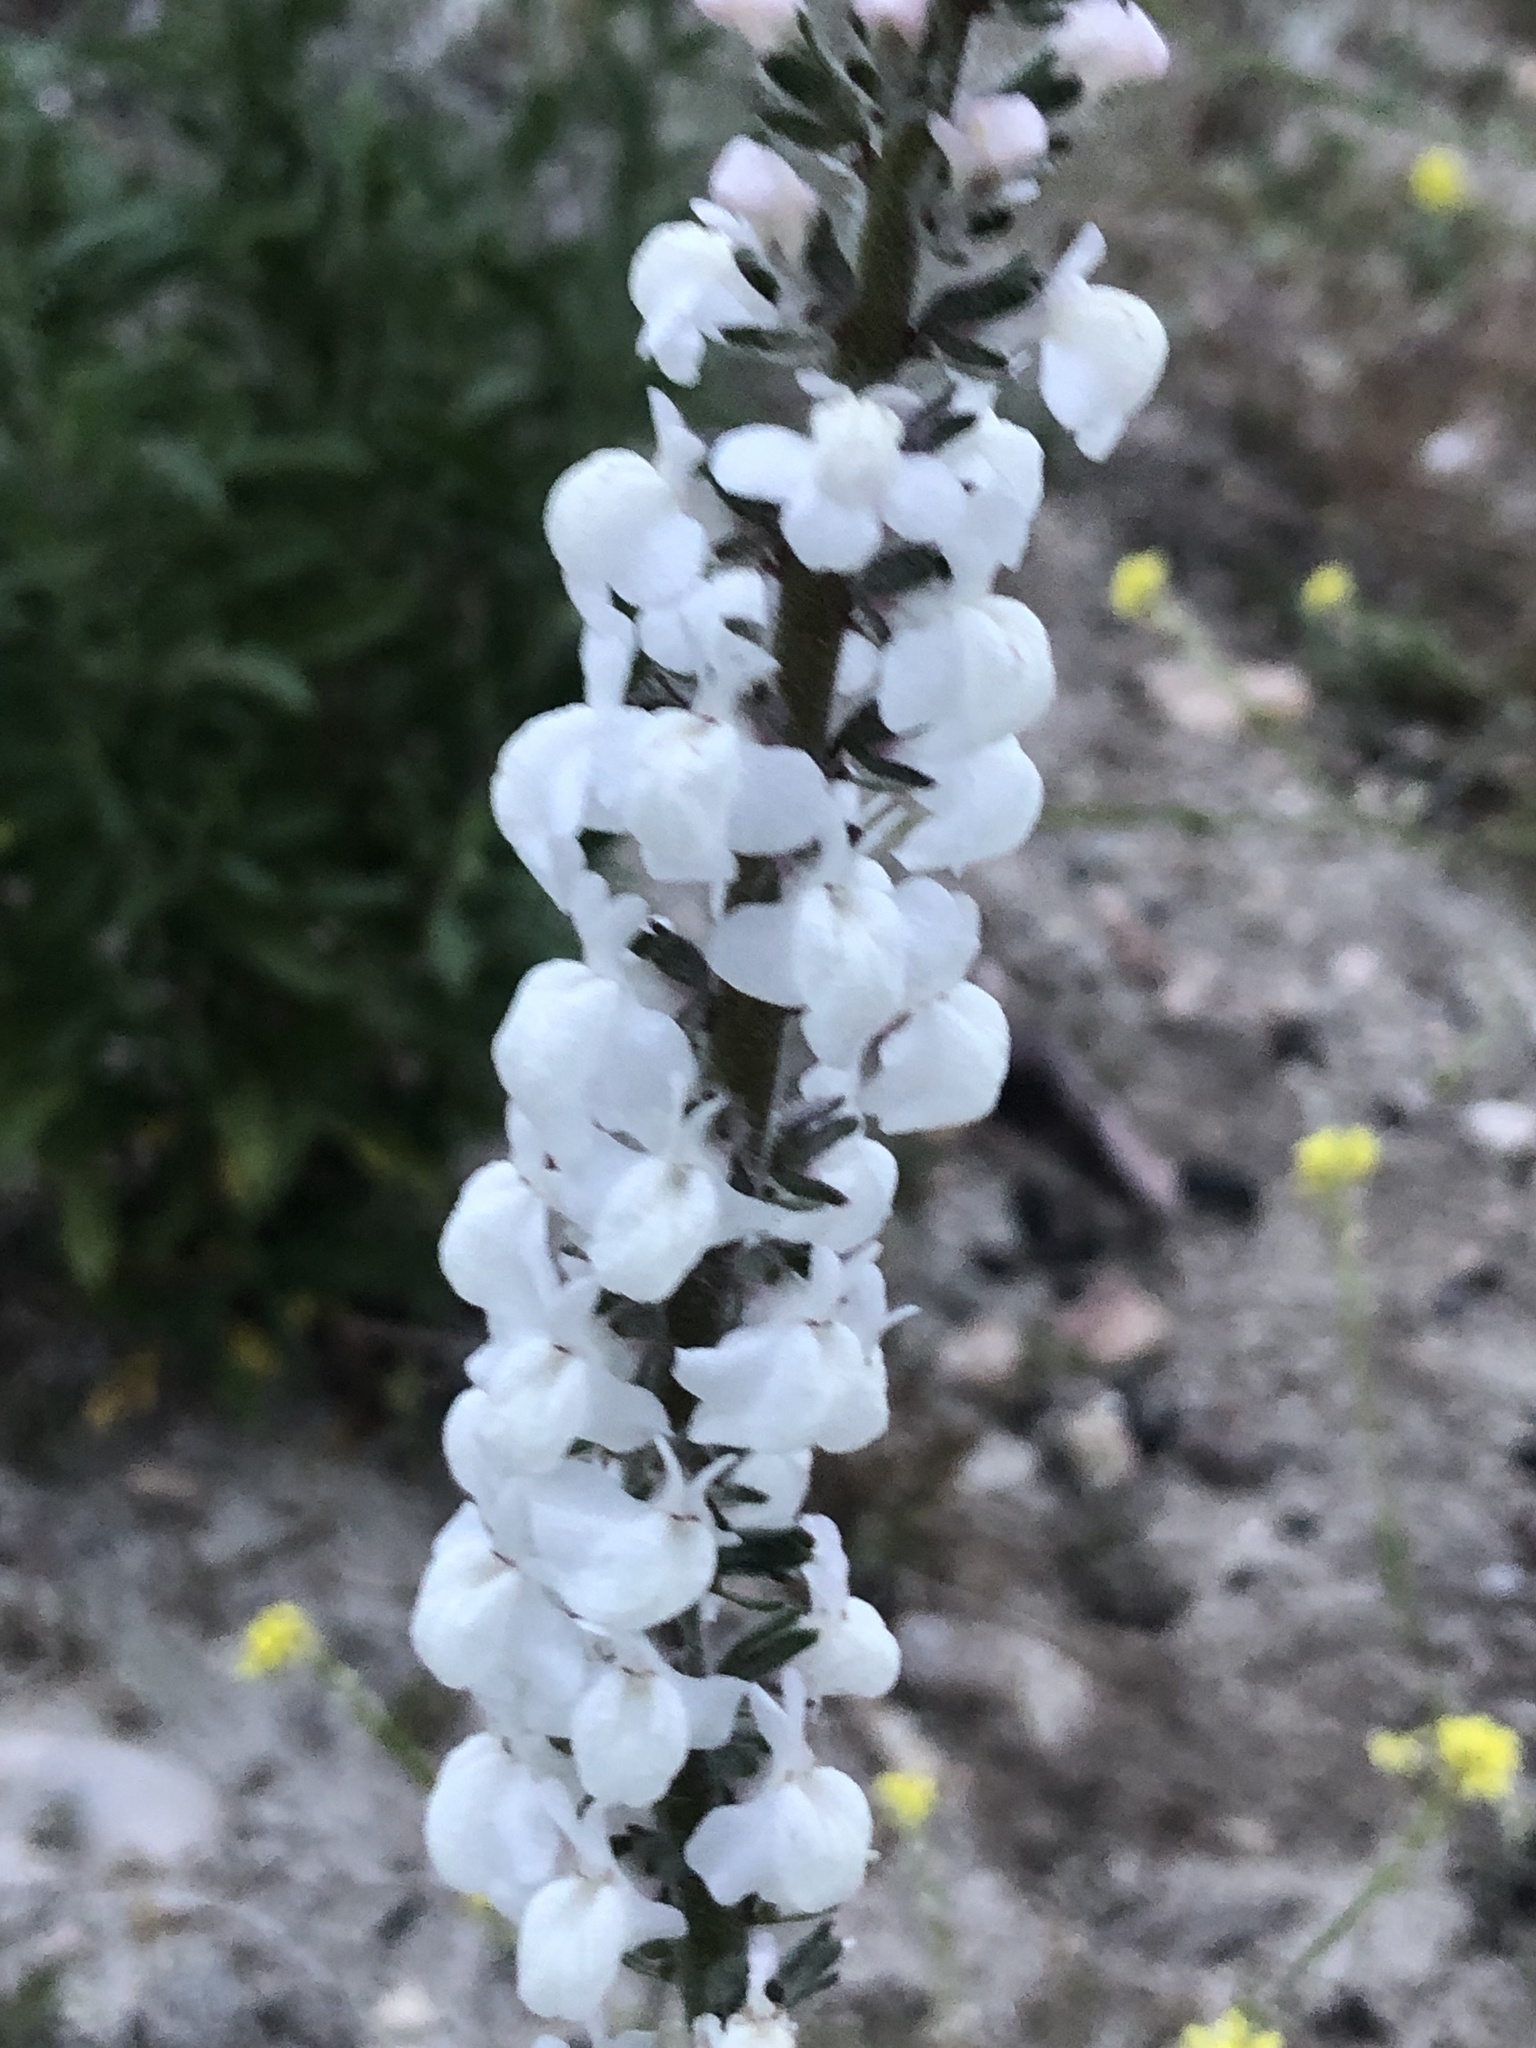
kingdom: Plantae
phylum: Tracheophyta
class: Magnoliopsida
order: Lamiales
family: Plantaginaceae
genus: Sairocarpus
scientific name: Sairocarpus coulterianus
